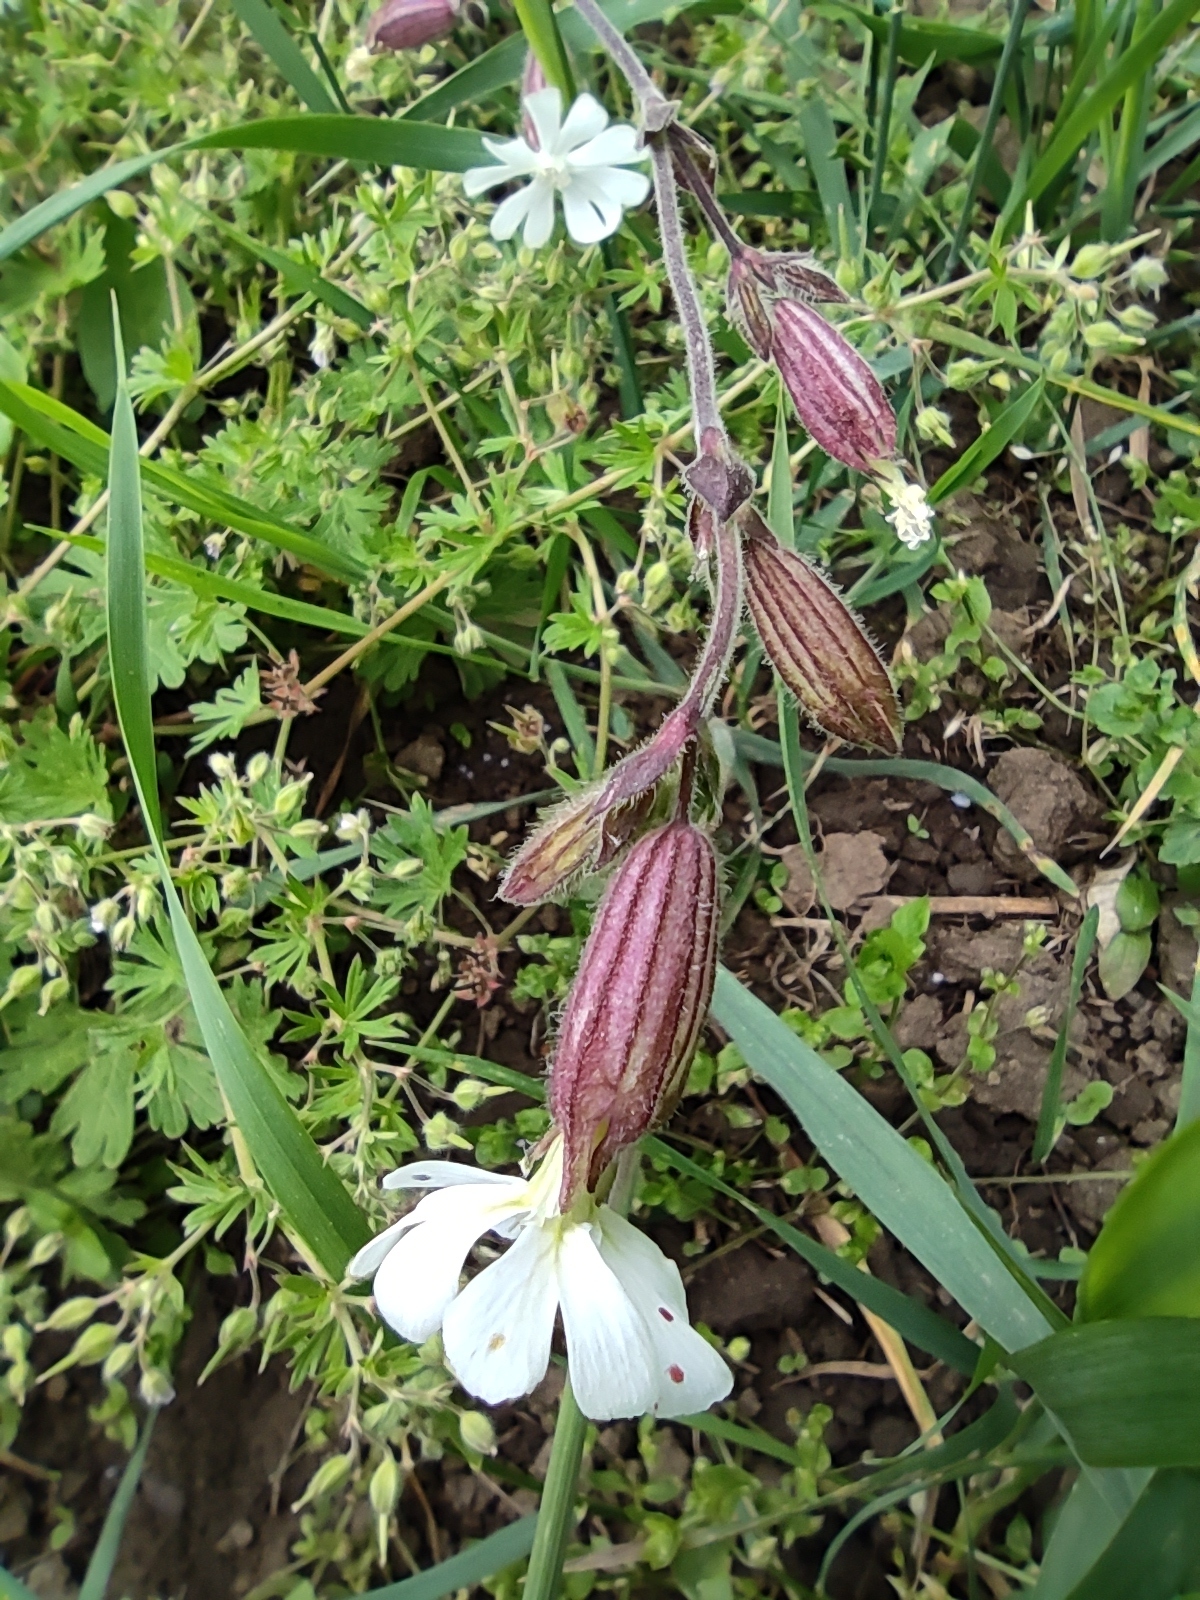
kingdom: Plantae
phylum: Tracheophyta
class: Magnoliopsida
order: Caryophyllales
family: Caryophyllaceae
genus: Silene
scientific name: Silene latifolia
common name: White campion
